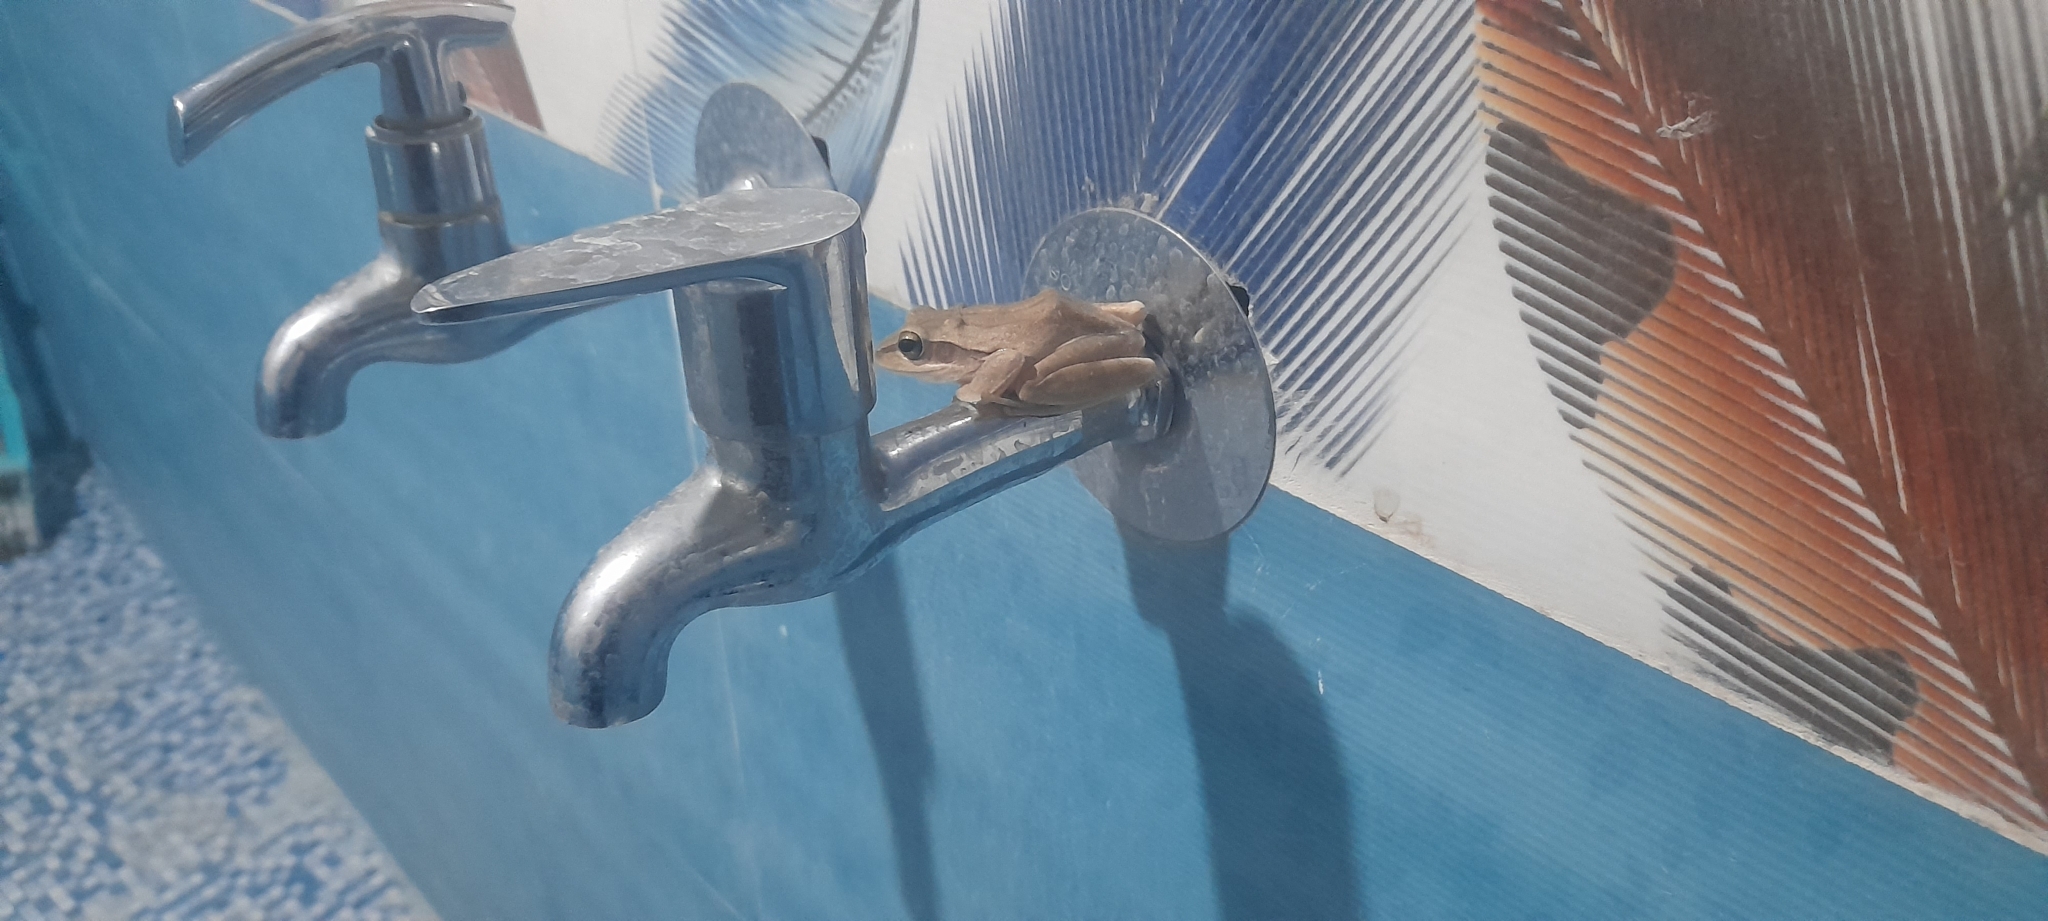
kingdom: Animalia
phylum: Chordata
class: Amphibia
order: Anura
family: Rhacophoridae
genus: Polypedates
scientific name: Polypedates maculatus
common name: Himalayan tree frog
